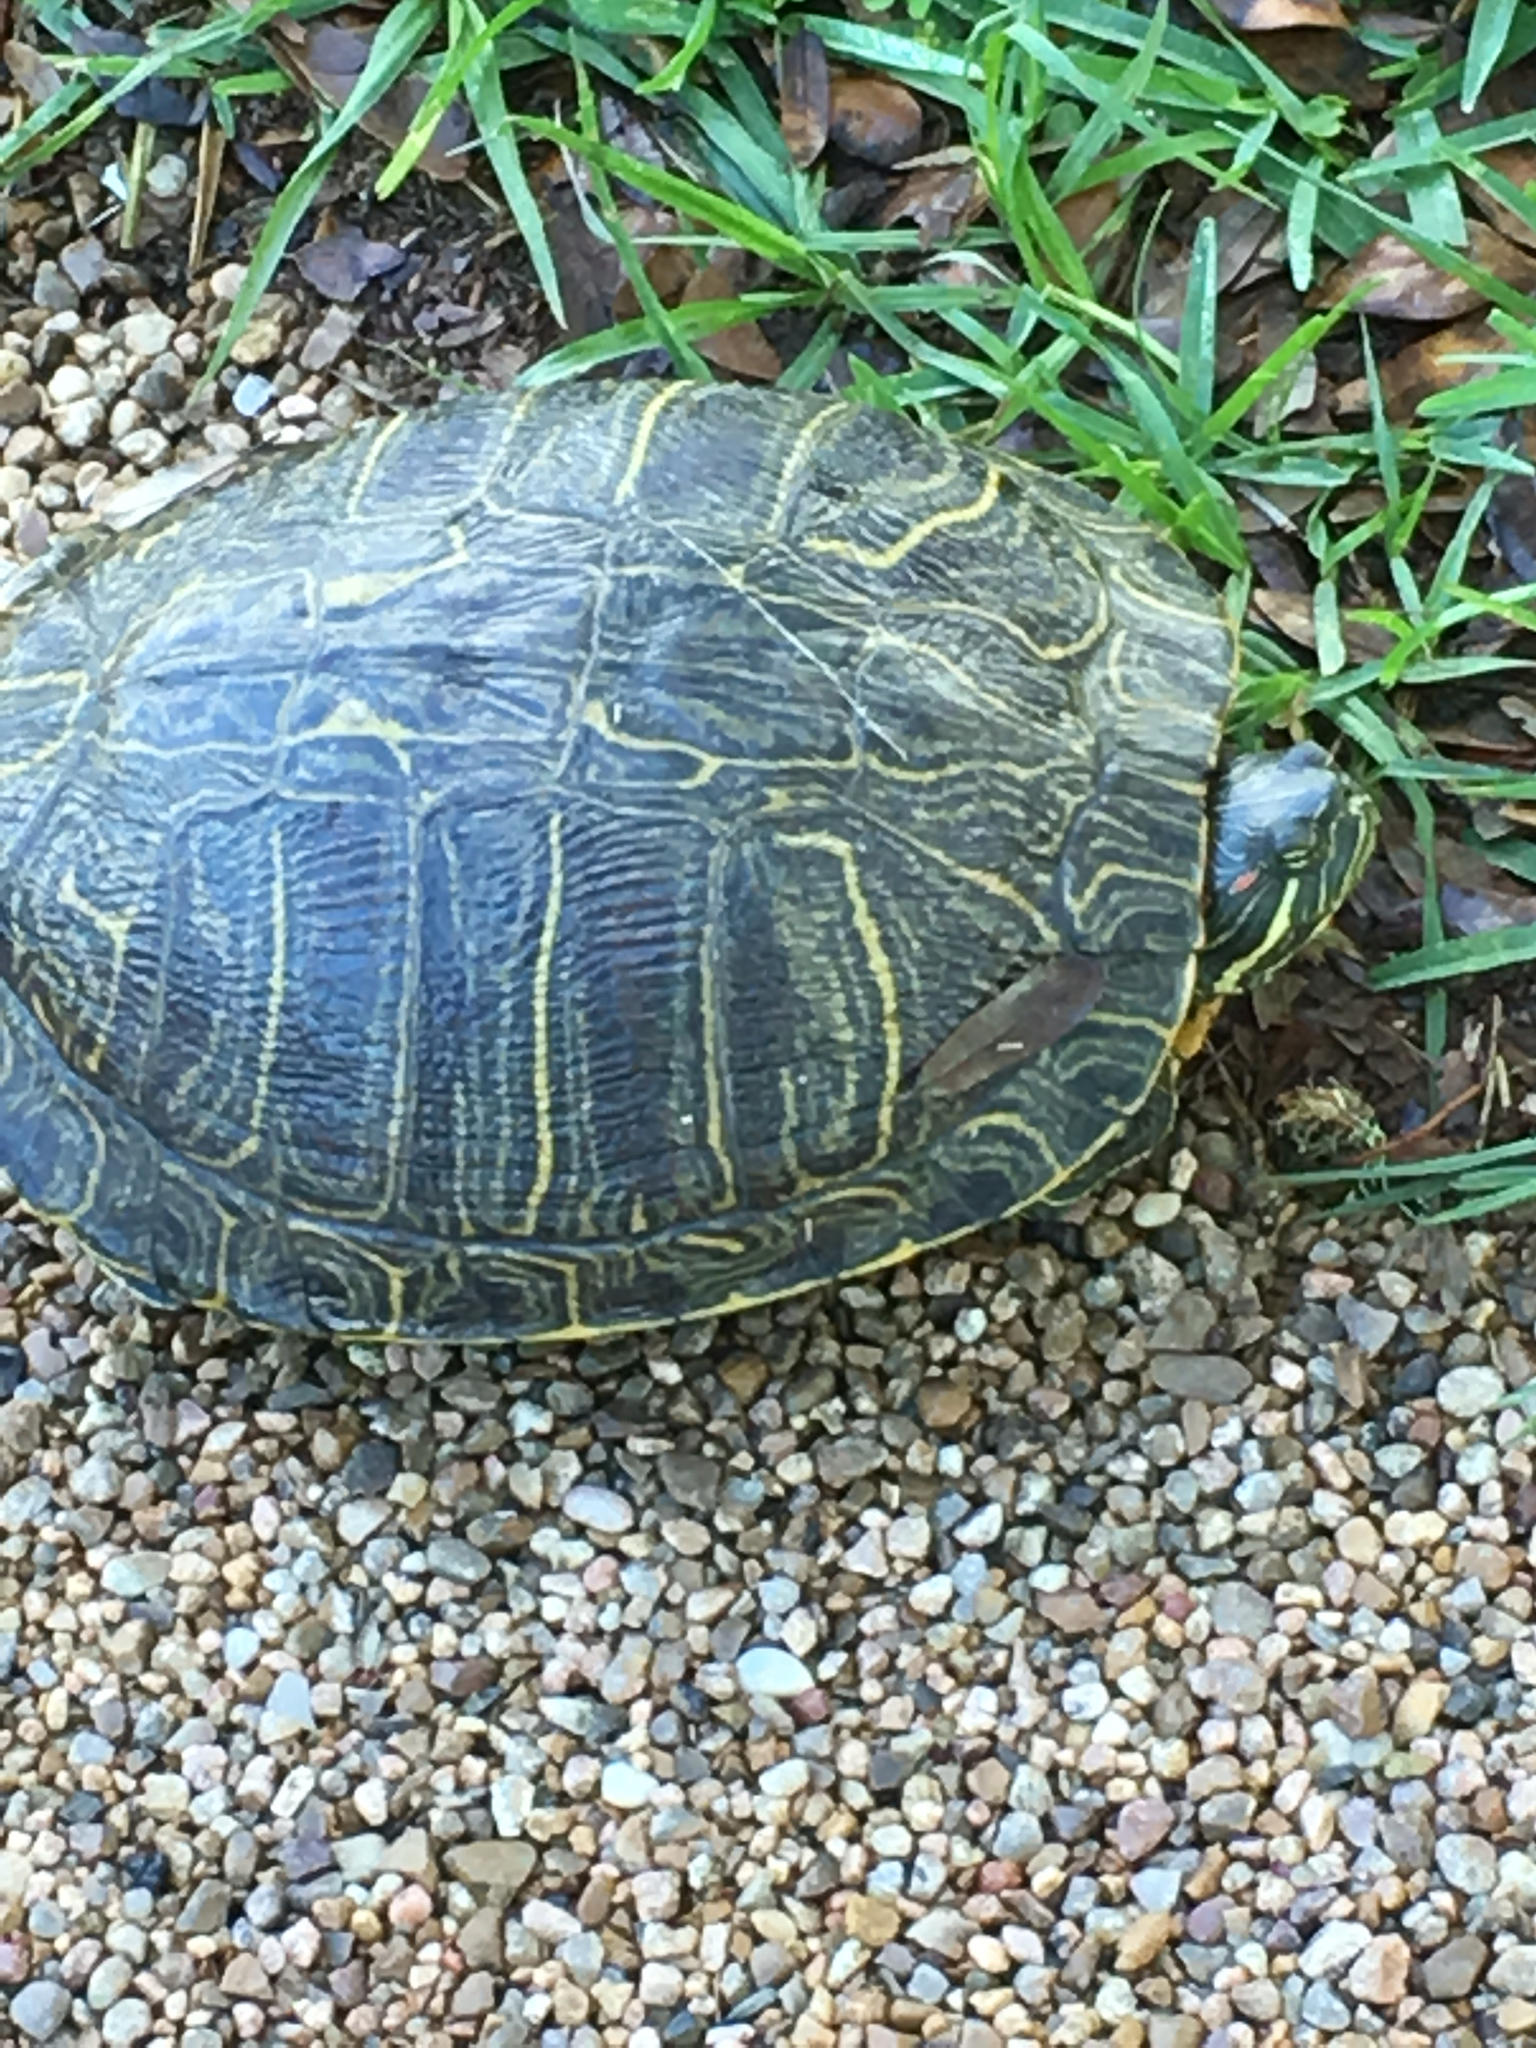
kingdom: Animalia
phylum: Chordata
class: Testudines
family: Emydidae
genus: Trachemys
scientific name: Trachemys scripta
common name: Slider
